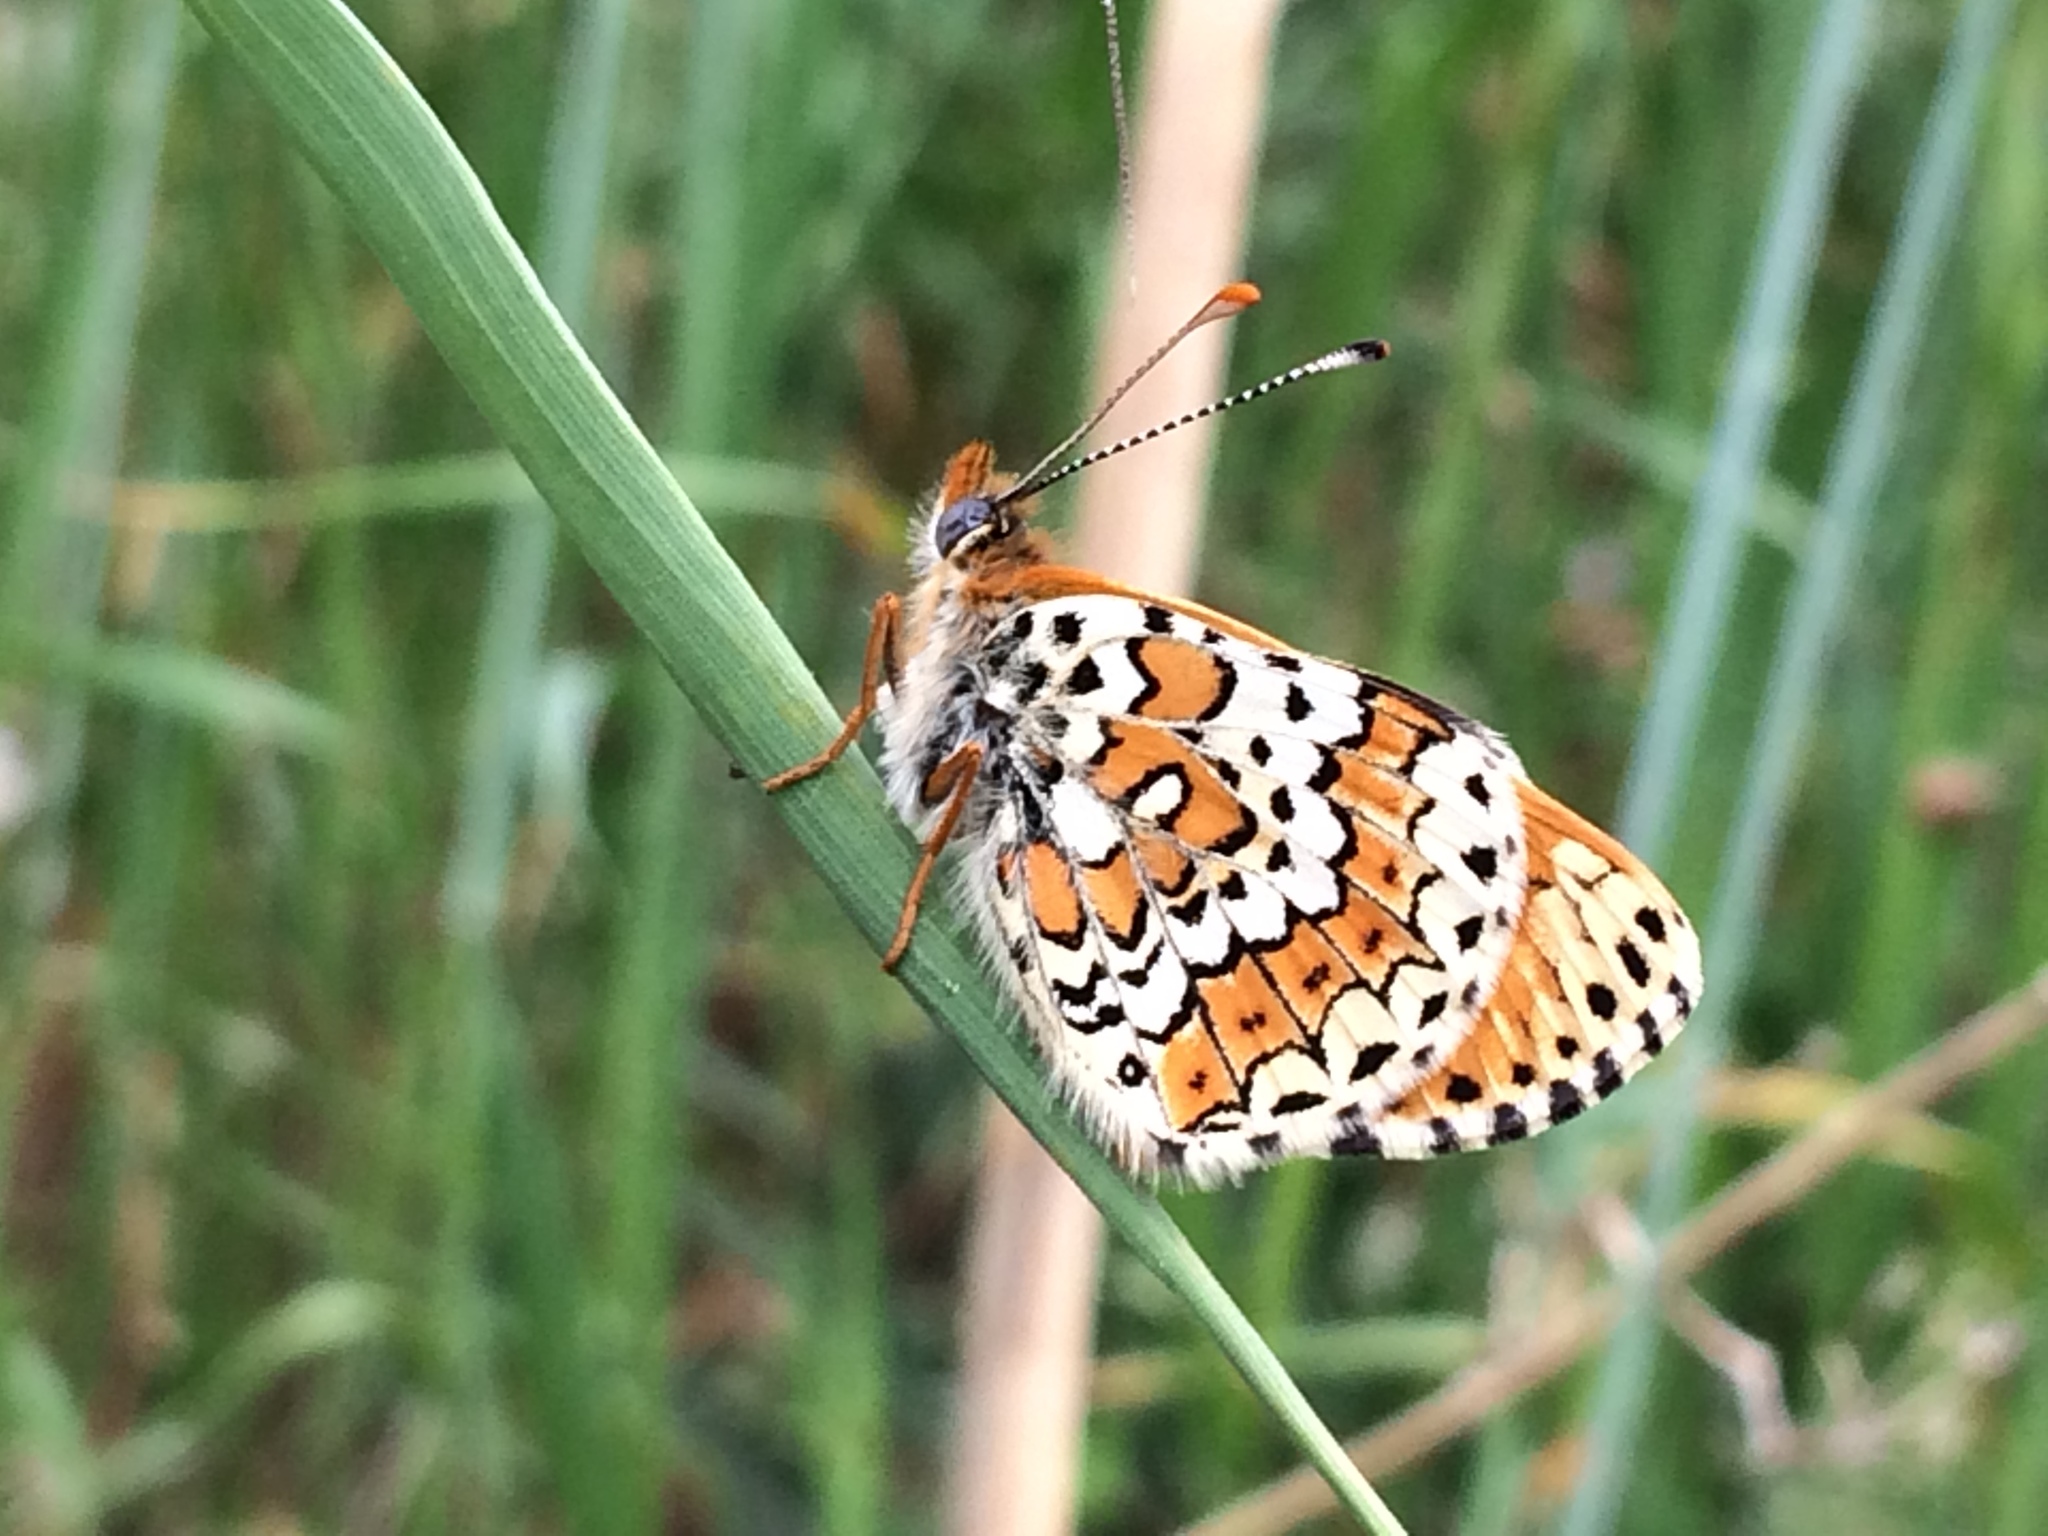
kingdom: Animalia
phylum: Arthropoda
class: Insecta
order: Lepidoptera
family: Nymphalidae
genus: Melitaea
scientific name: Melitaea cinxia
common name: Glanville fritillary
